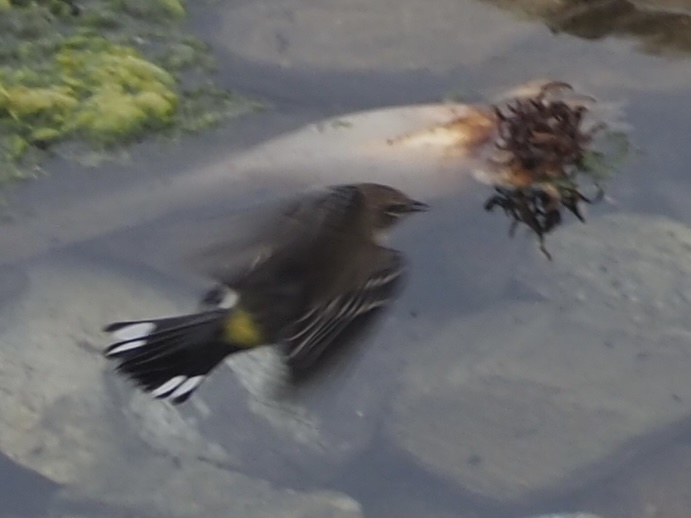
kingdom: Animalia
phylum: Chordata
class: Aves
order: Passeriformes
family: Parulidae
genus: Setophaga
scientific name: Setophaga coronata
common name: Myrtle warbler
